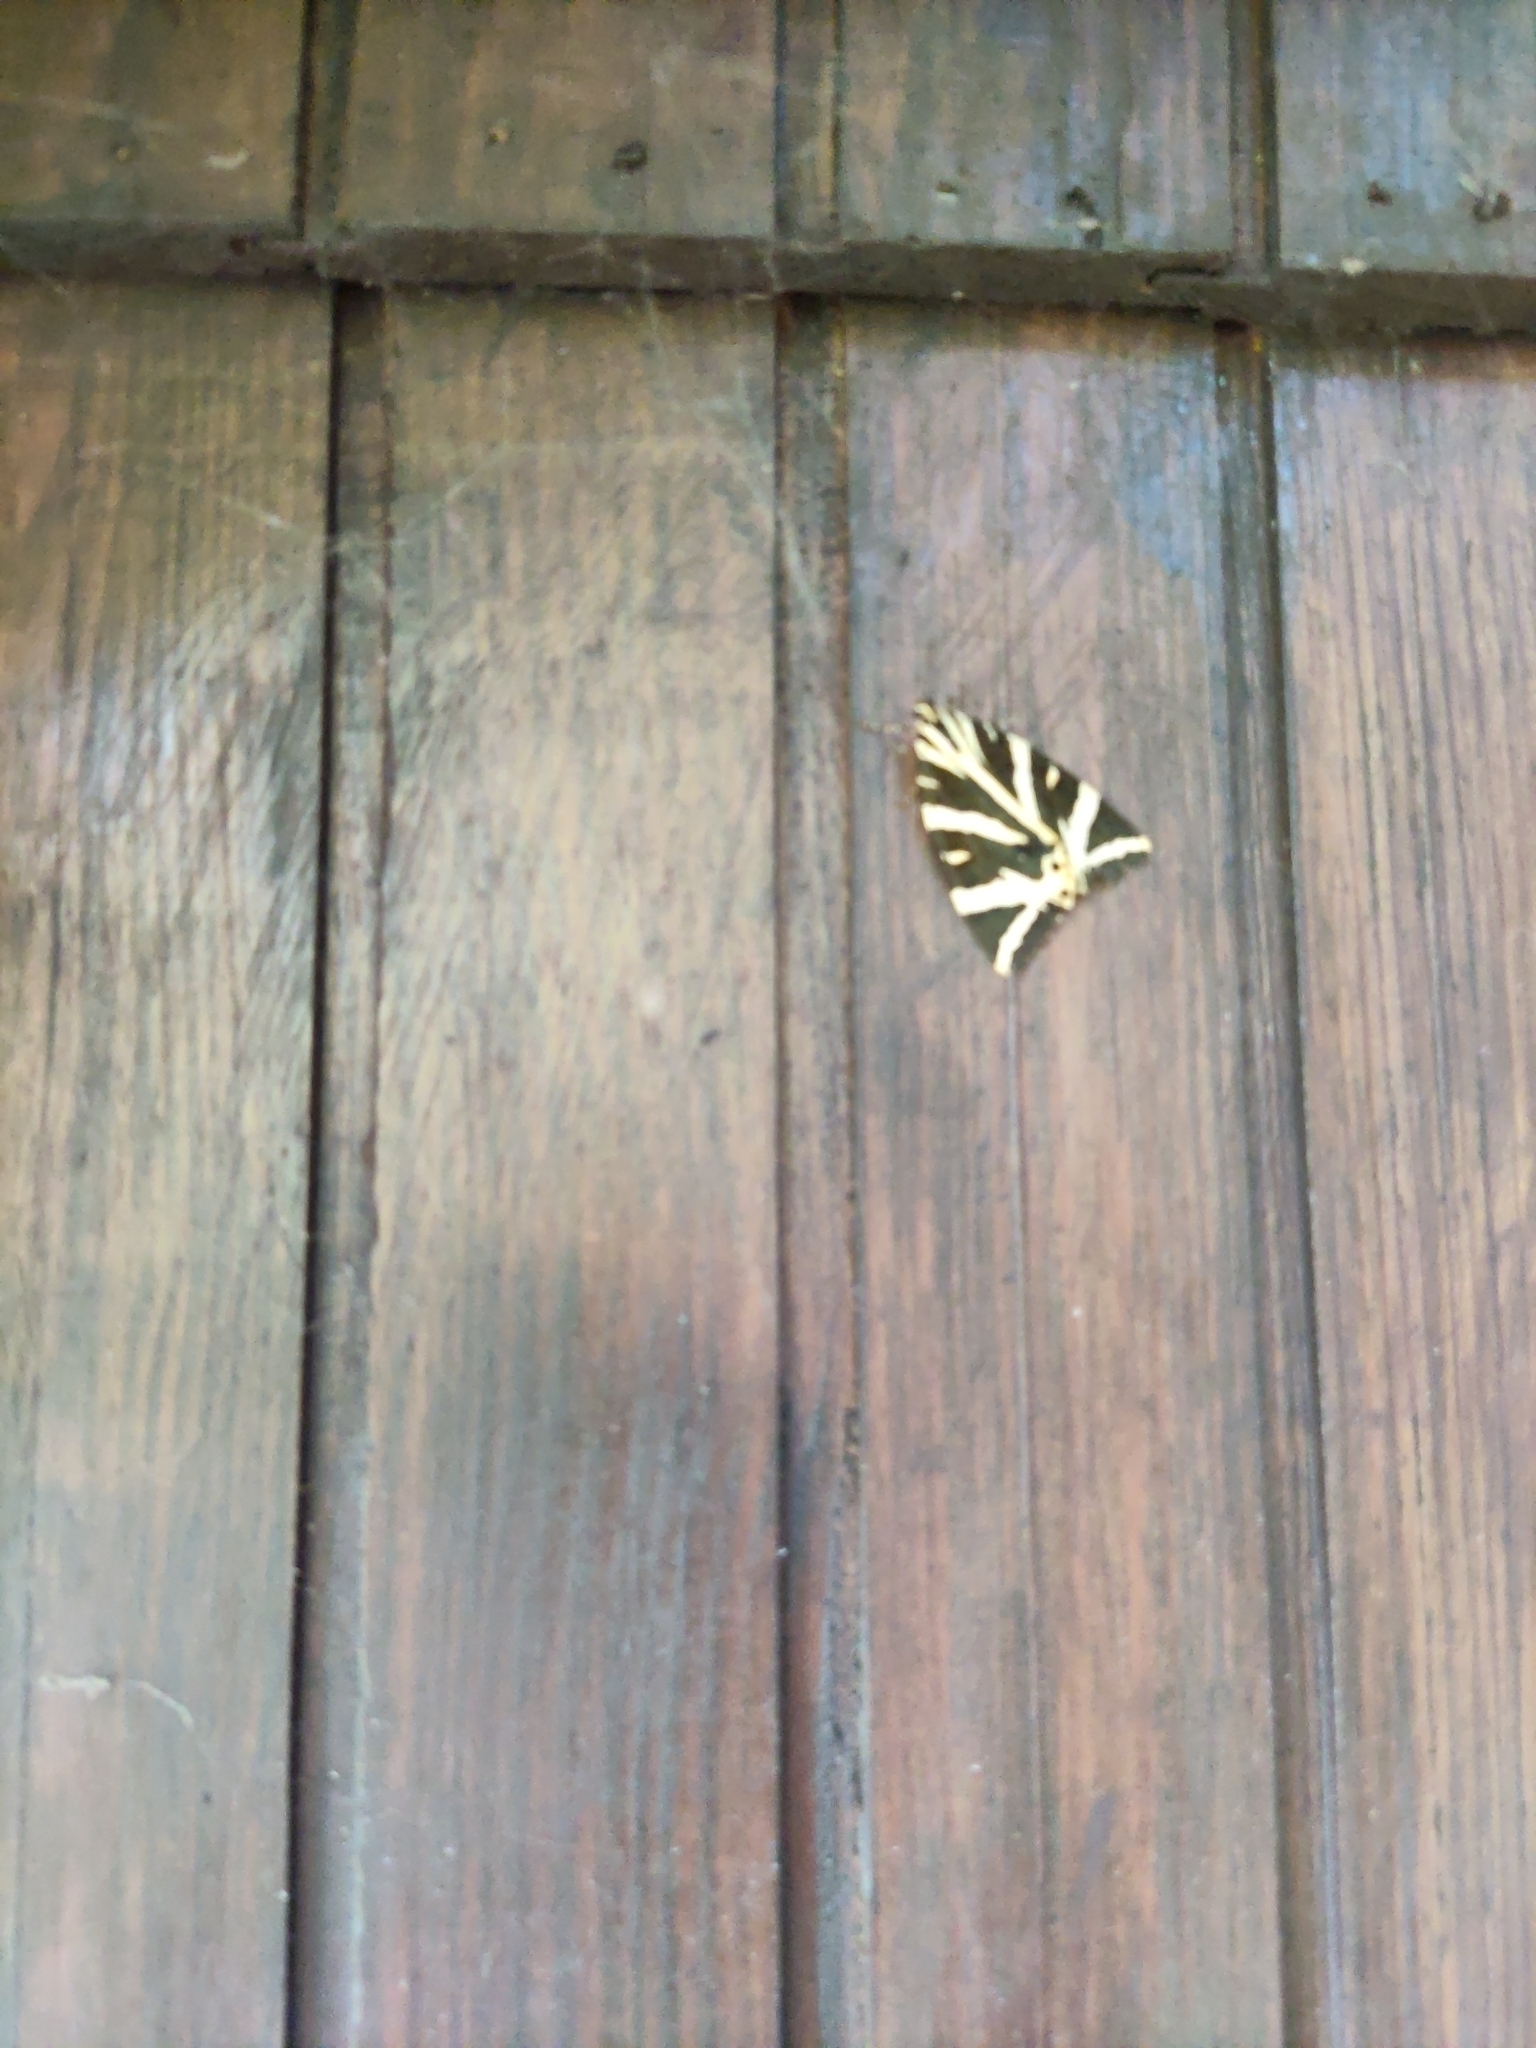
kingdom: Animalia
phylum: Arthropoda
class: Insecta
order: Lepidoptera
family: Erebidae
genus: Euplagia
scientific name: Euplagia quadripunctaria
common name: Jersey tiger
